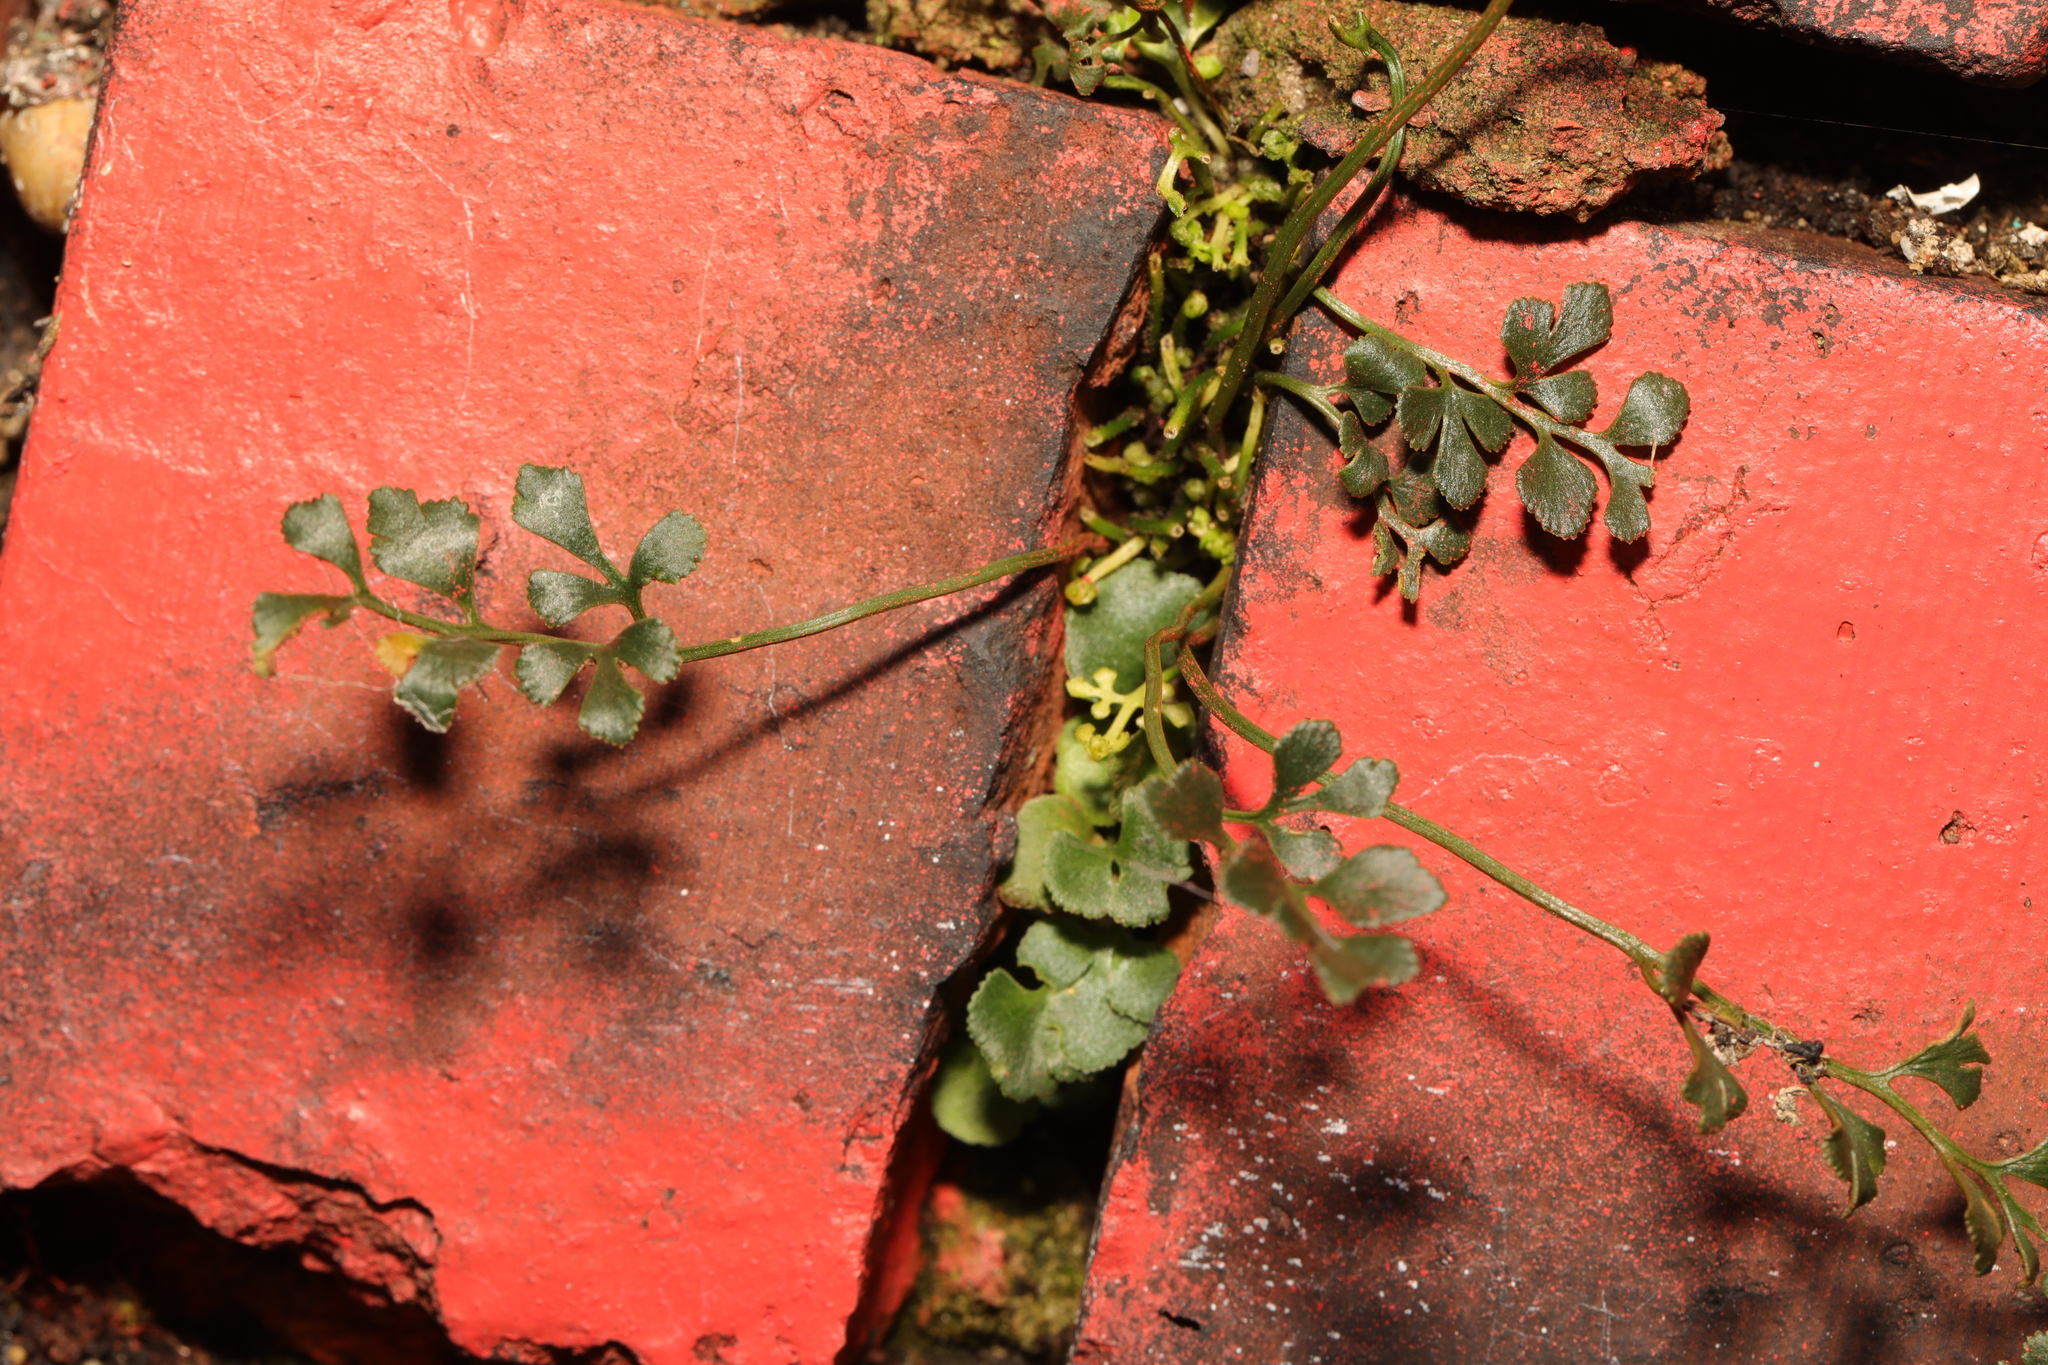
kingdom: Plantae
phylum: Tracheophyta
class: Polypodiopsida
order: Polypodiales
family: Aspleniaceae
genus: Asplenium
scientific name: Asplenium ruta-muraria
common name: Wall-rue
